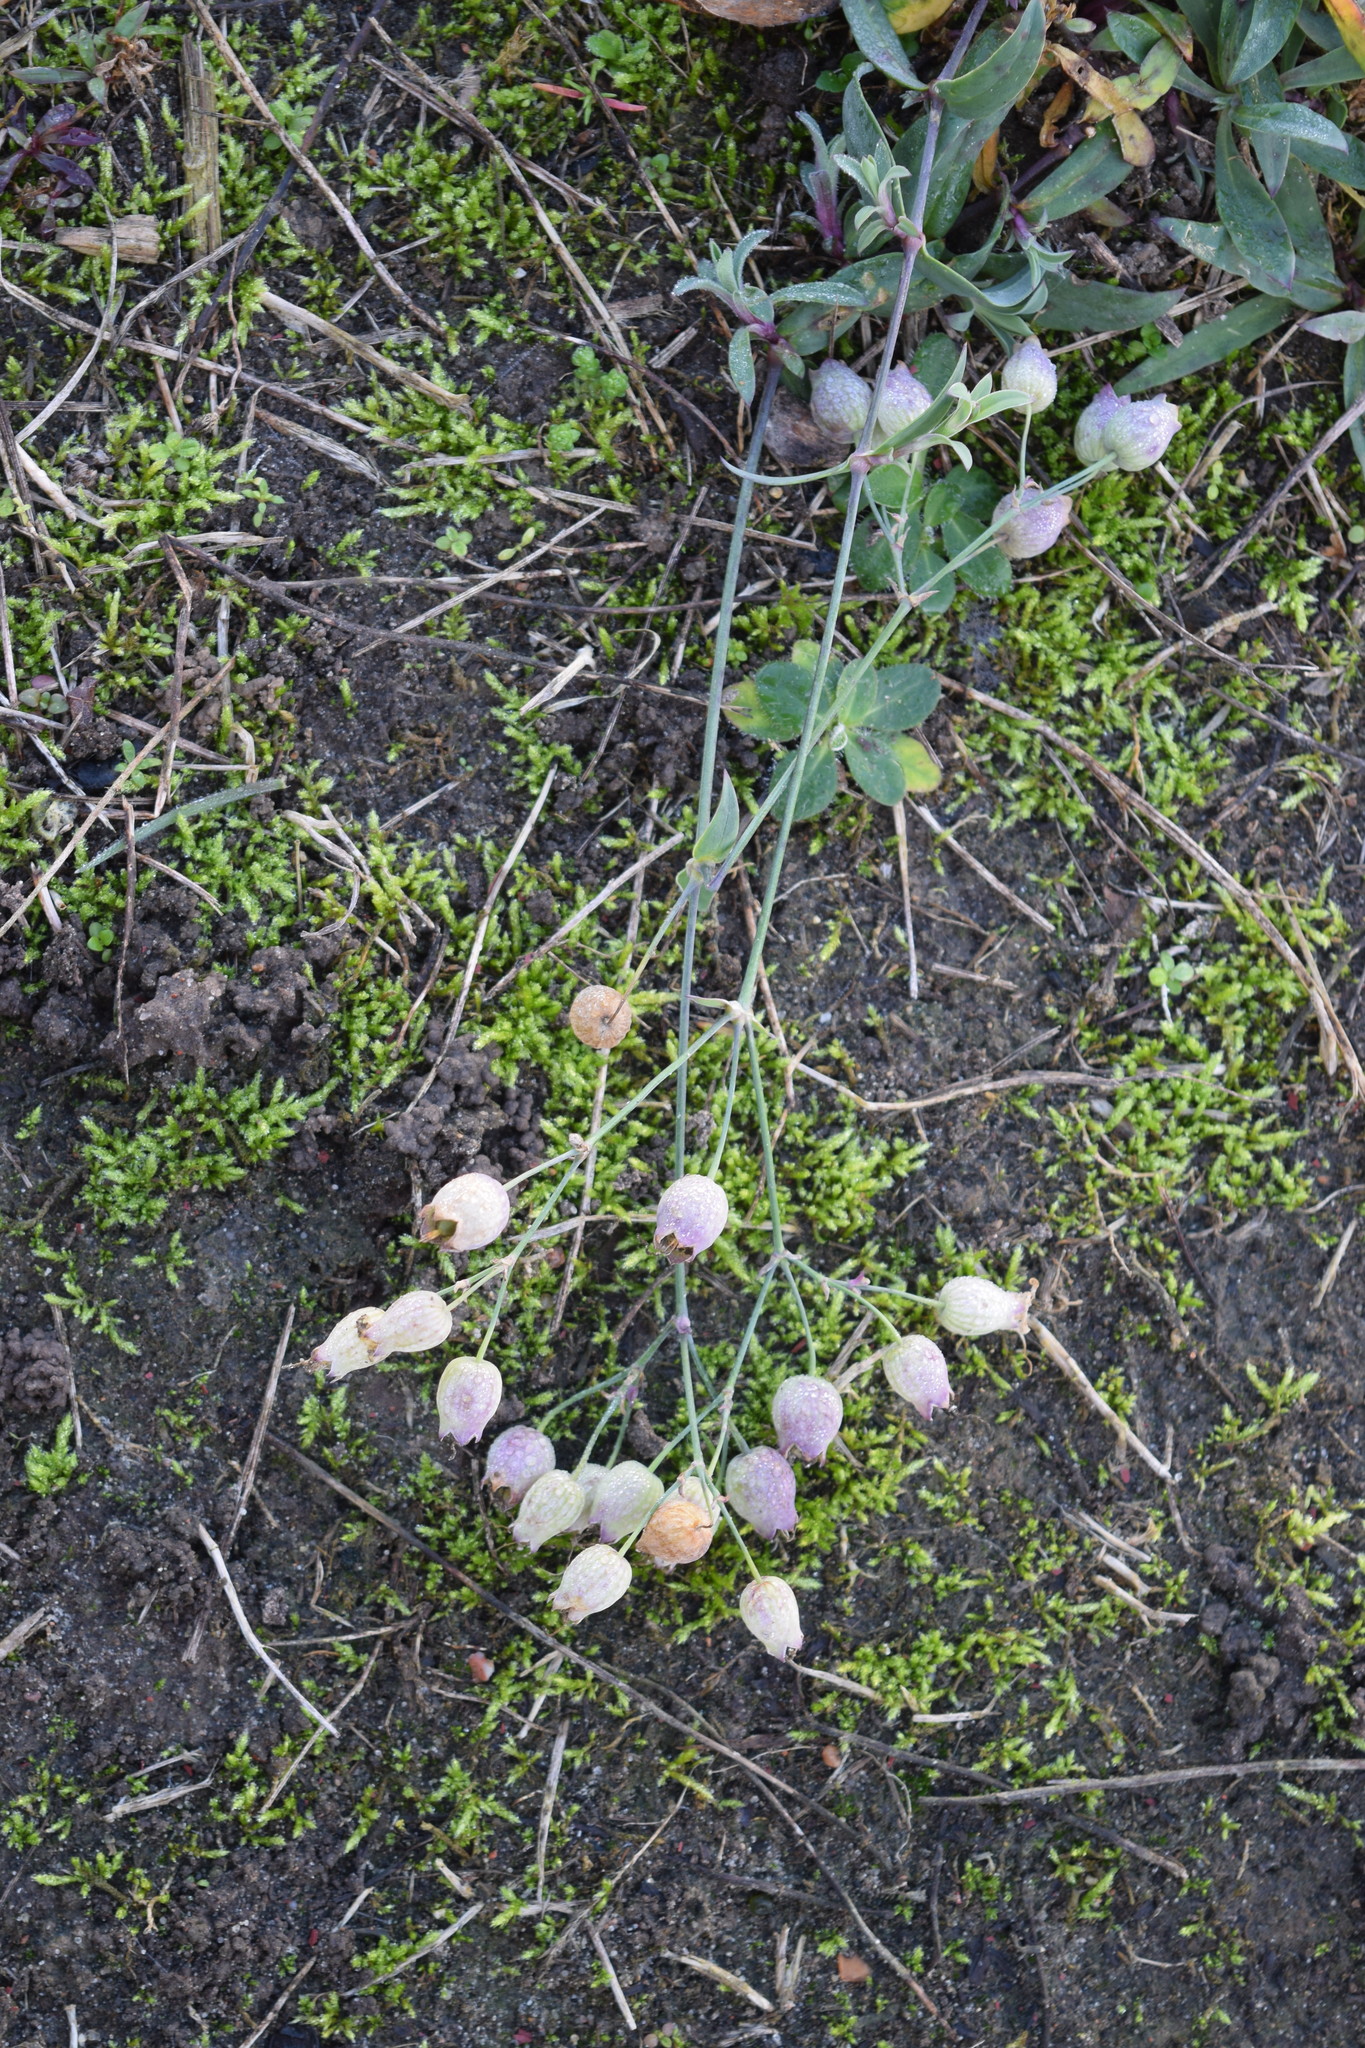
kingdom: Plantae
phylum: Tracheophyta
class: Magnoliopsida
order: Caryophyllales
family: Caryophyllaceae
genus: Silene
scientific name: Silene vulgaris
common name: Bladder campion
